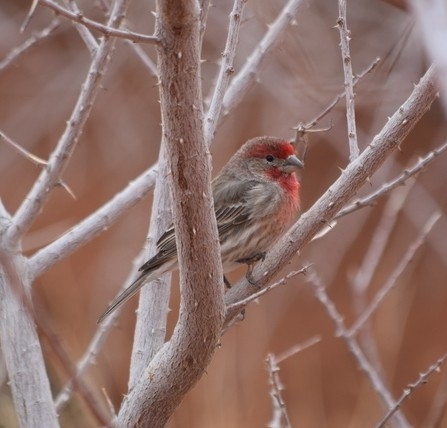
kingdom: Animalia
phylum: Chordata
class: Aves
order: Passeriformes
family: Fringillidae
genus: Haemorhous
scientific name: Haemorhous mexicanus
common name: House finch
